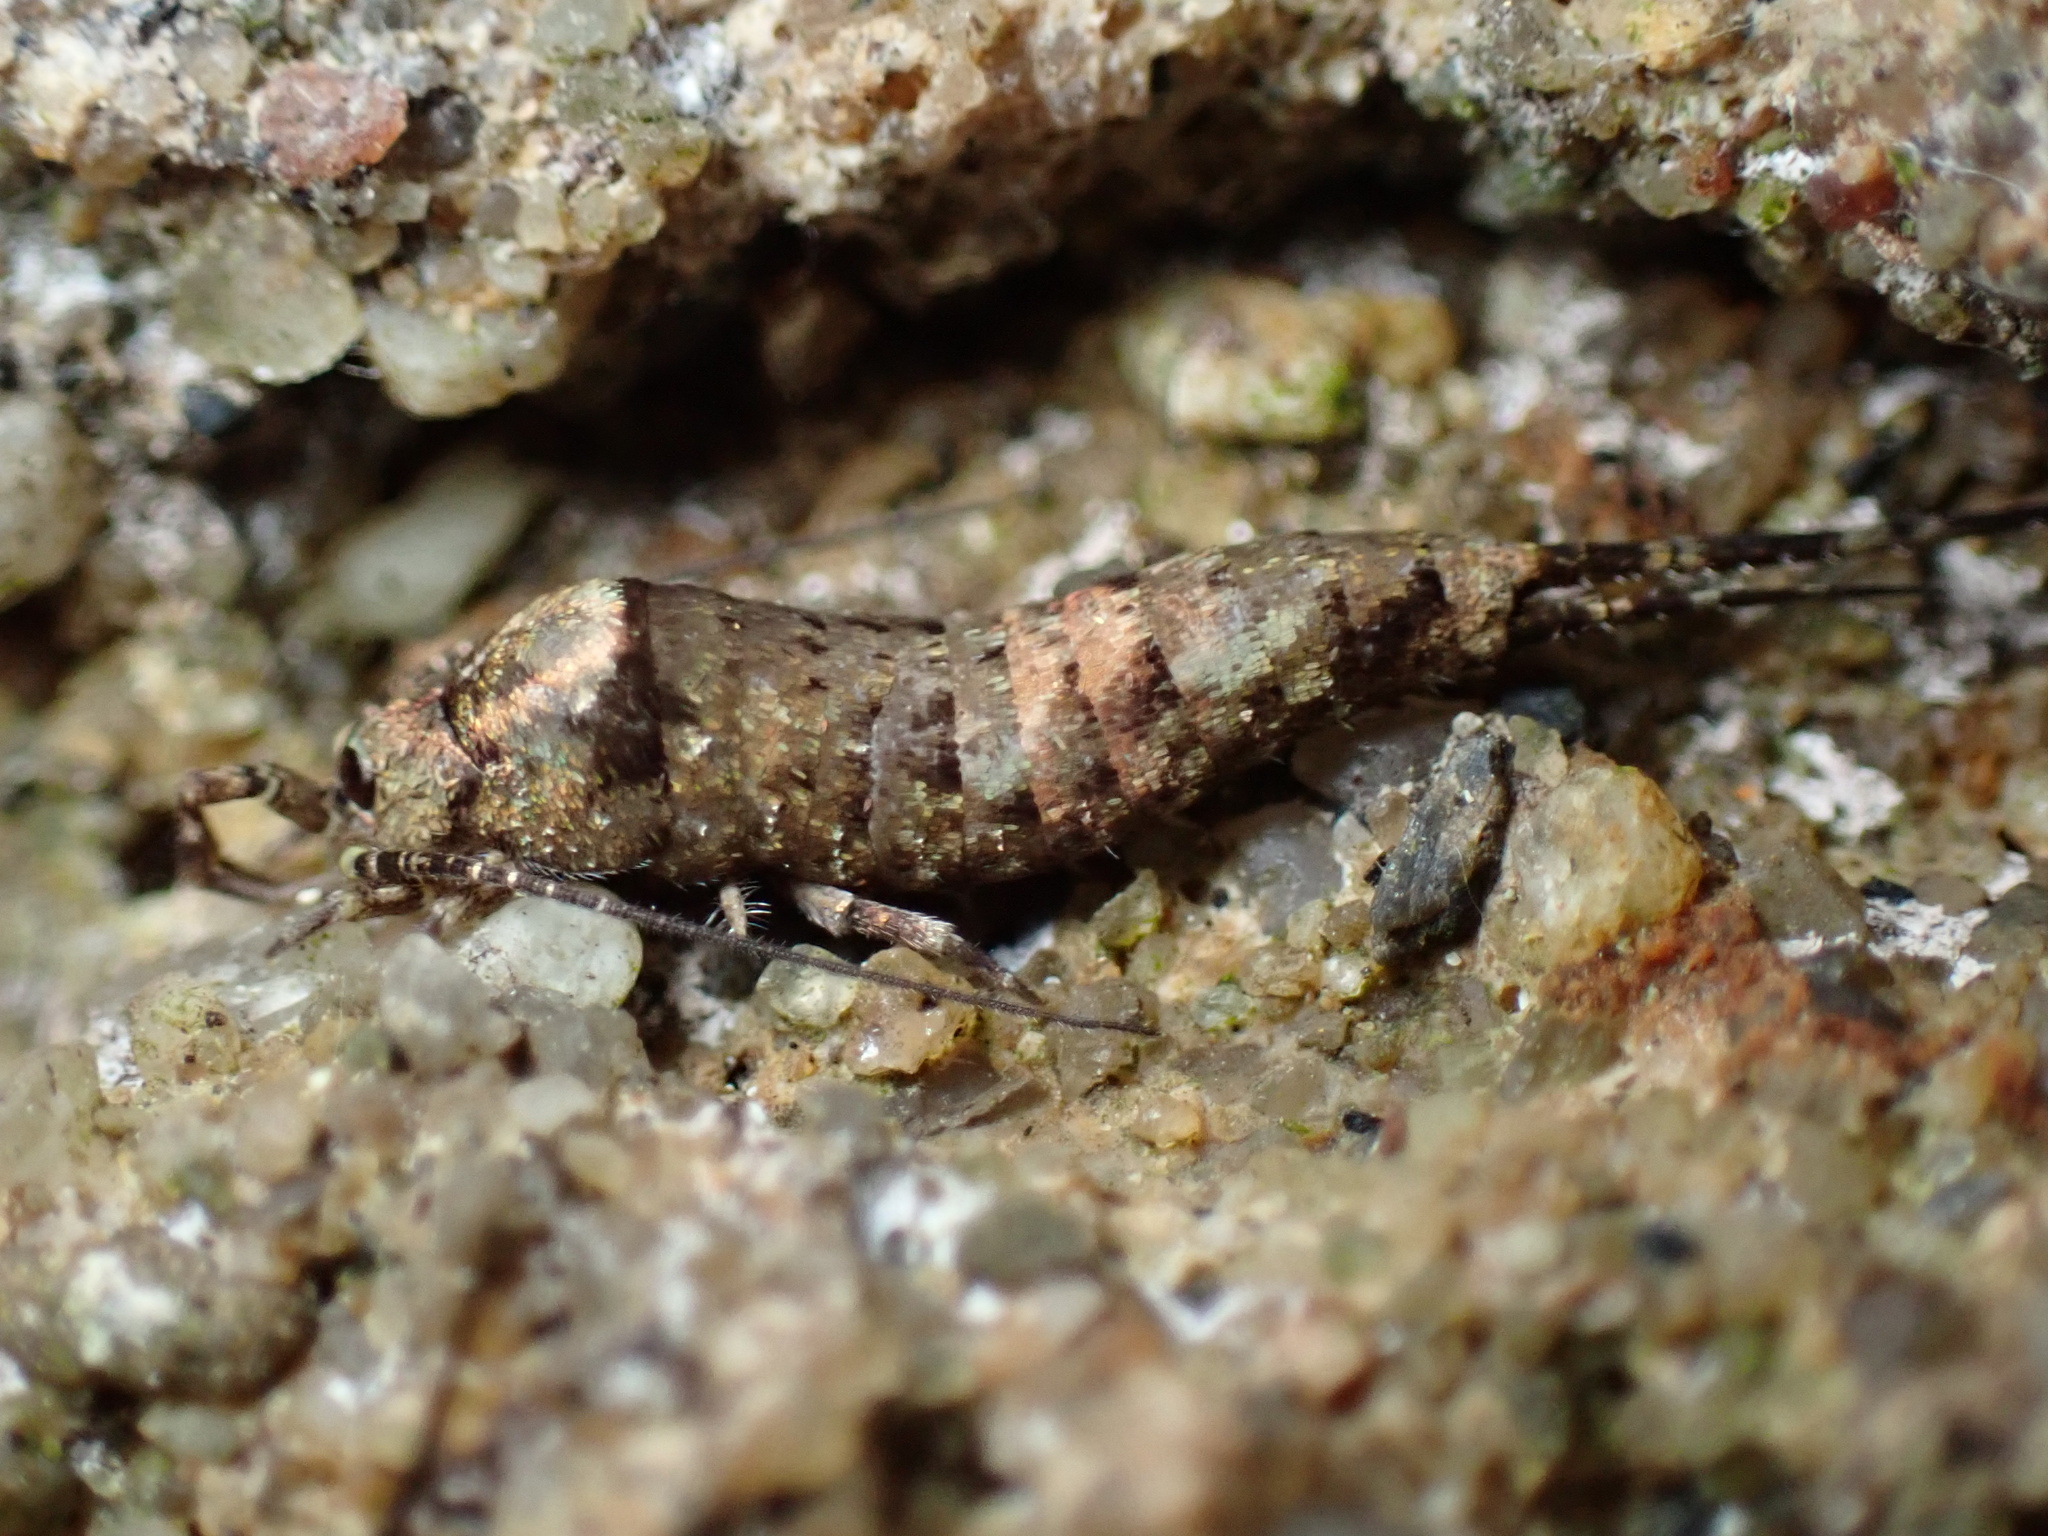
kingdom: Animalia
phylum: Arthropoda
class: Insecta
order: Archaeognatha
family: Machilidae
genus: Trigoniophthalmus
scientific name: Trigoniophthalmus alternatus
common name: Jumping bristletail
